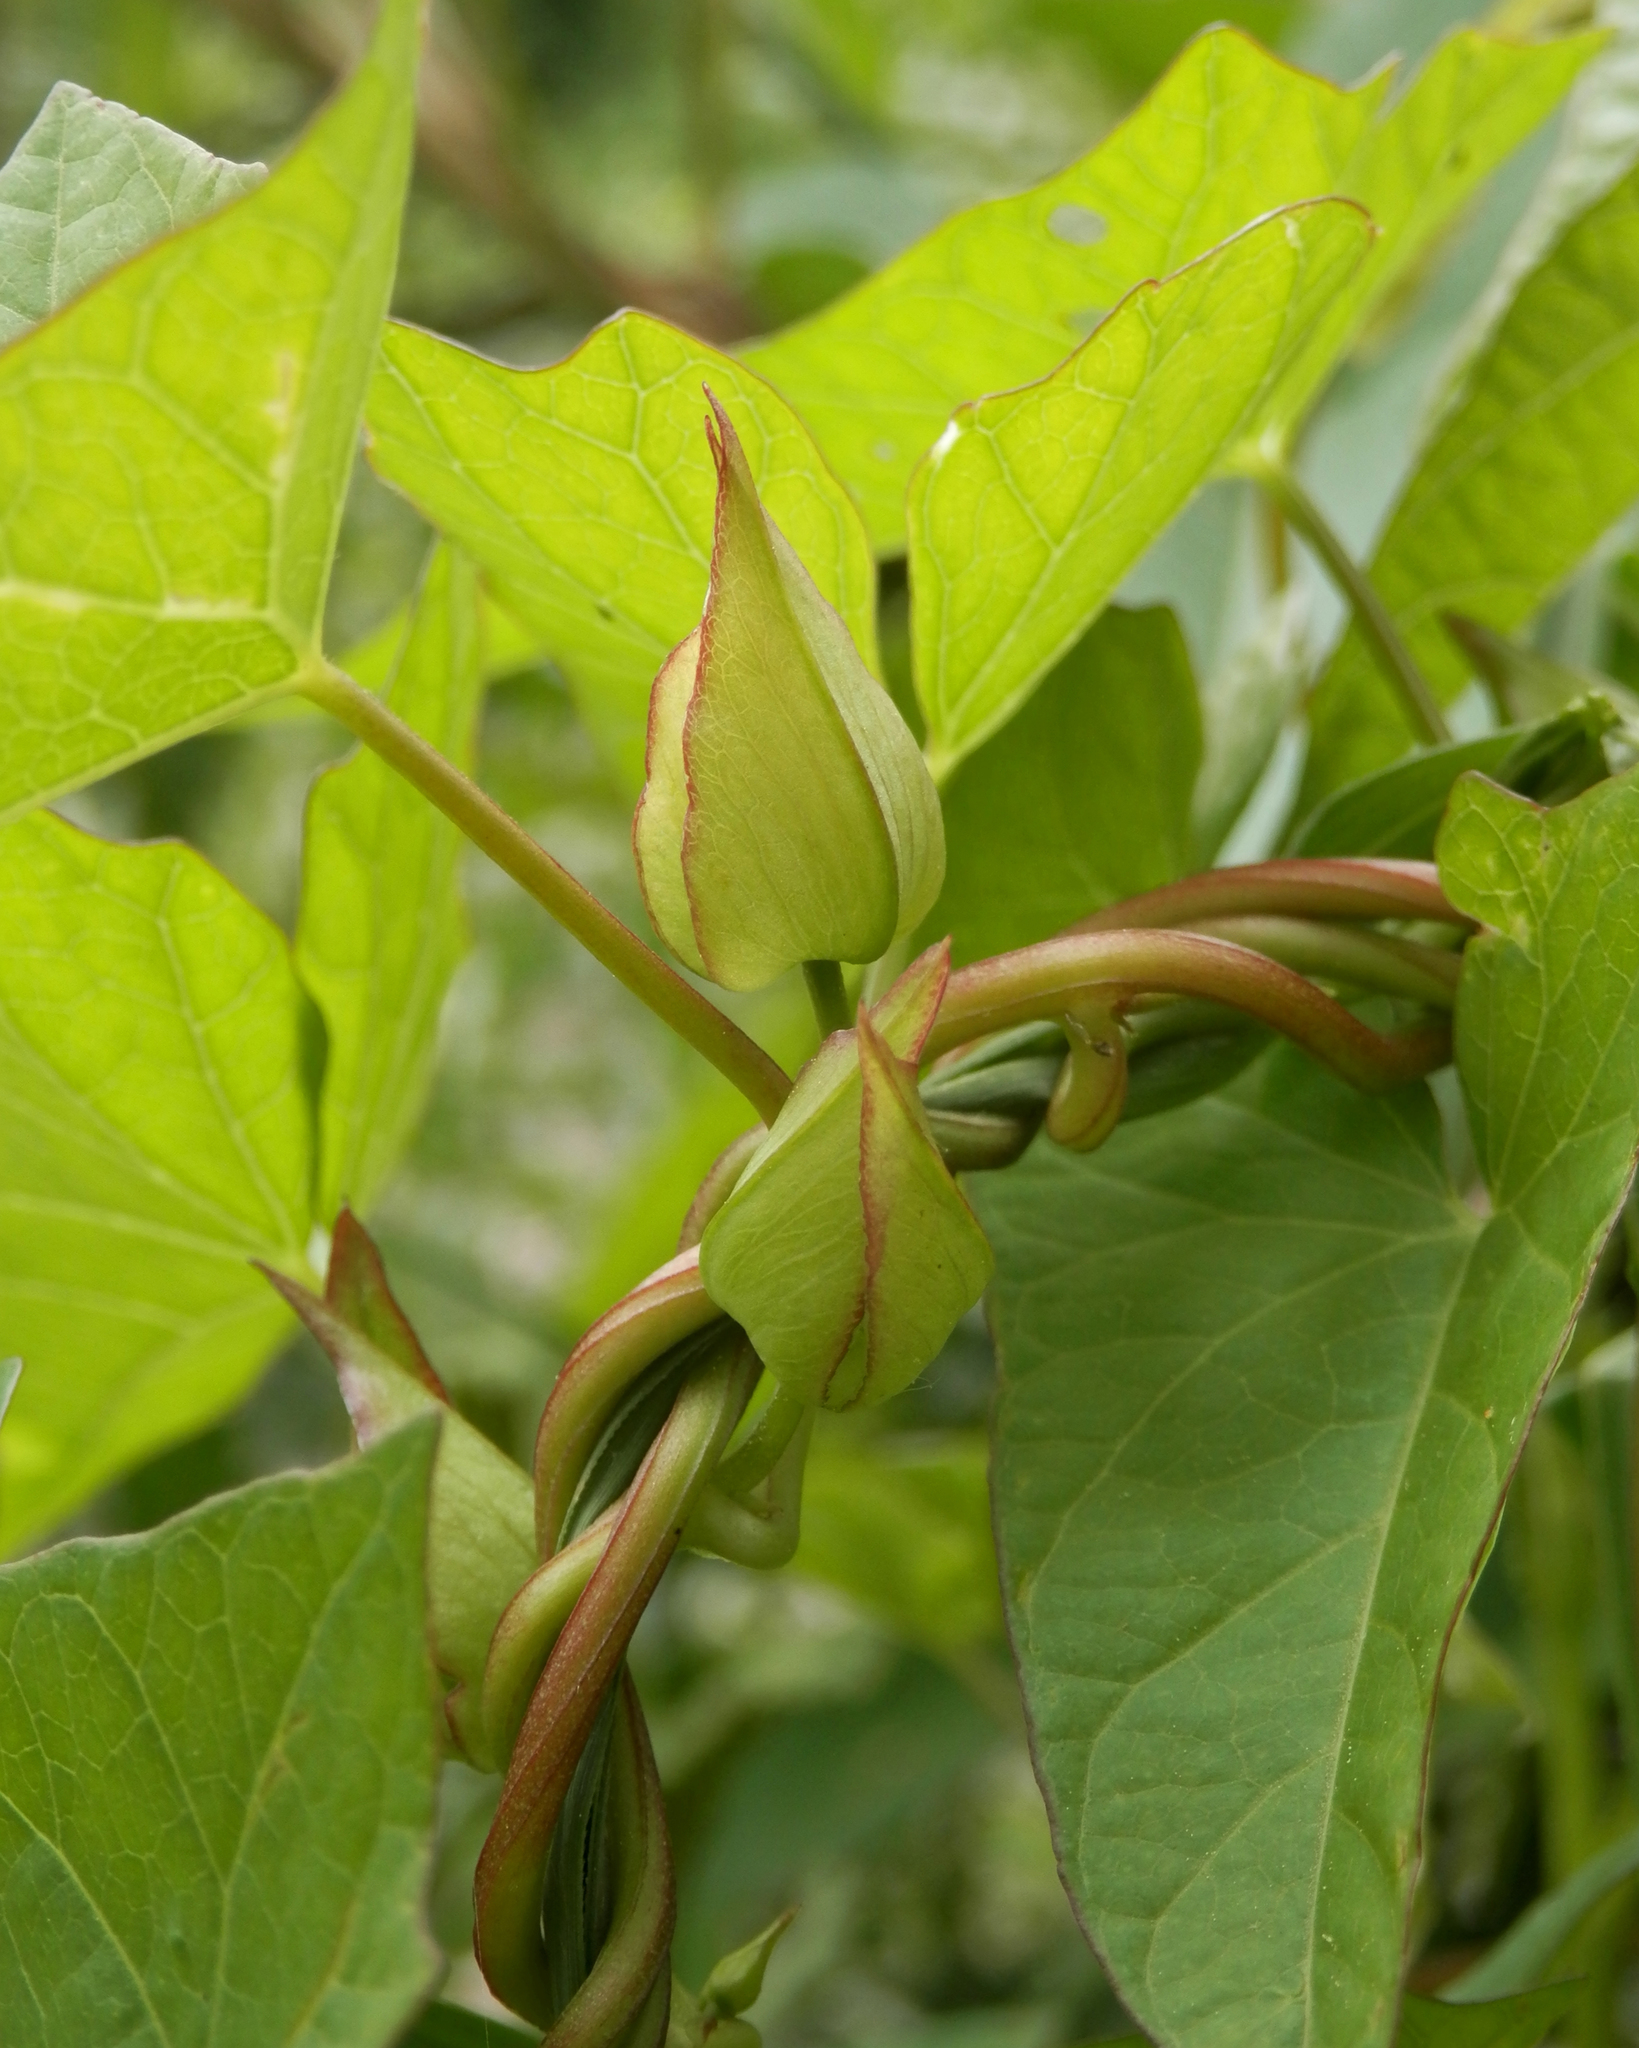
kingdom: Plantae
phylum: Tracheophyta
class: Magnoliopsida
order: Solanales
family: Convolvulaceae
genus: Calystegia
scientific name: Calystegia sepium
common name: Hedge bindweed
